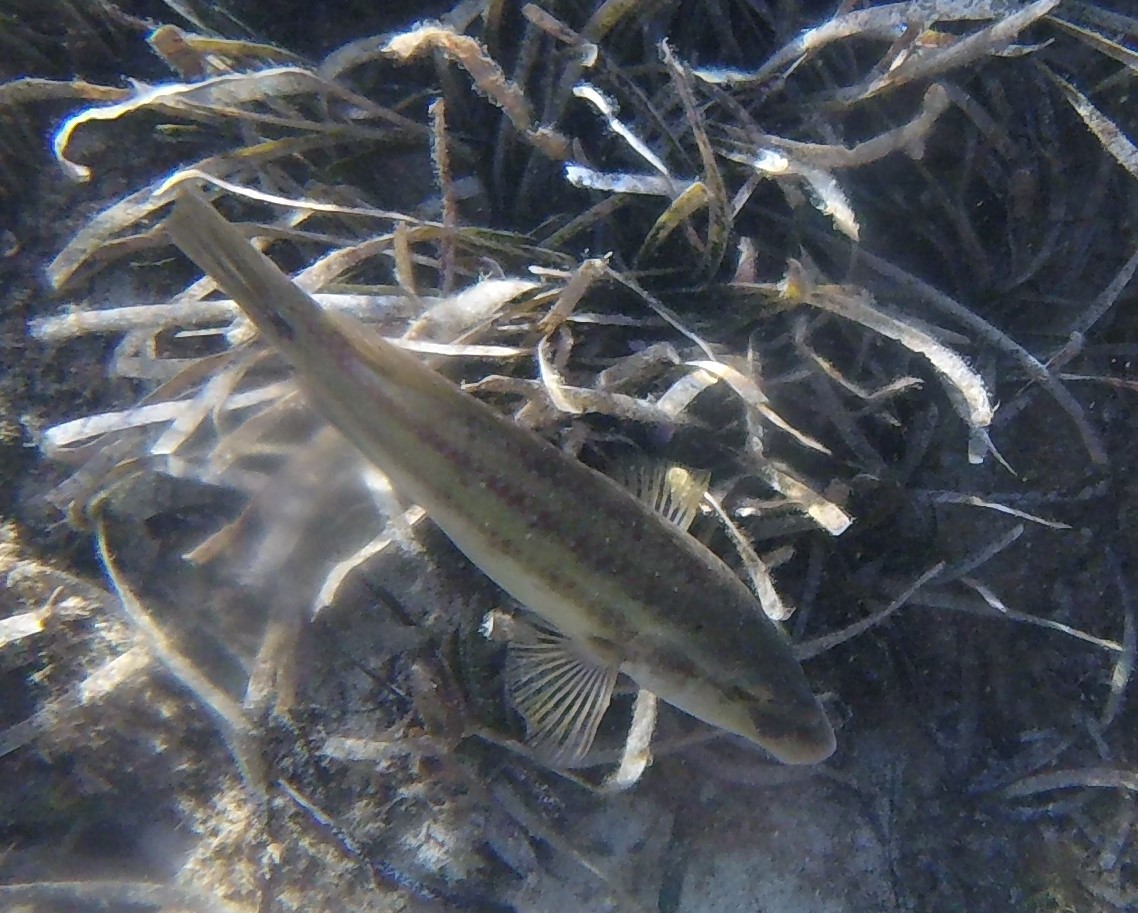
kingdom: Animalia
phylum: Chordata
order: Perciformes
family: Labridae
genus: Symphodus
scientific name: Symphodus tinca
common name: Peacock wrasse
